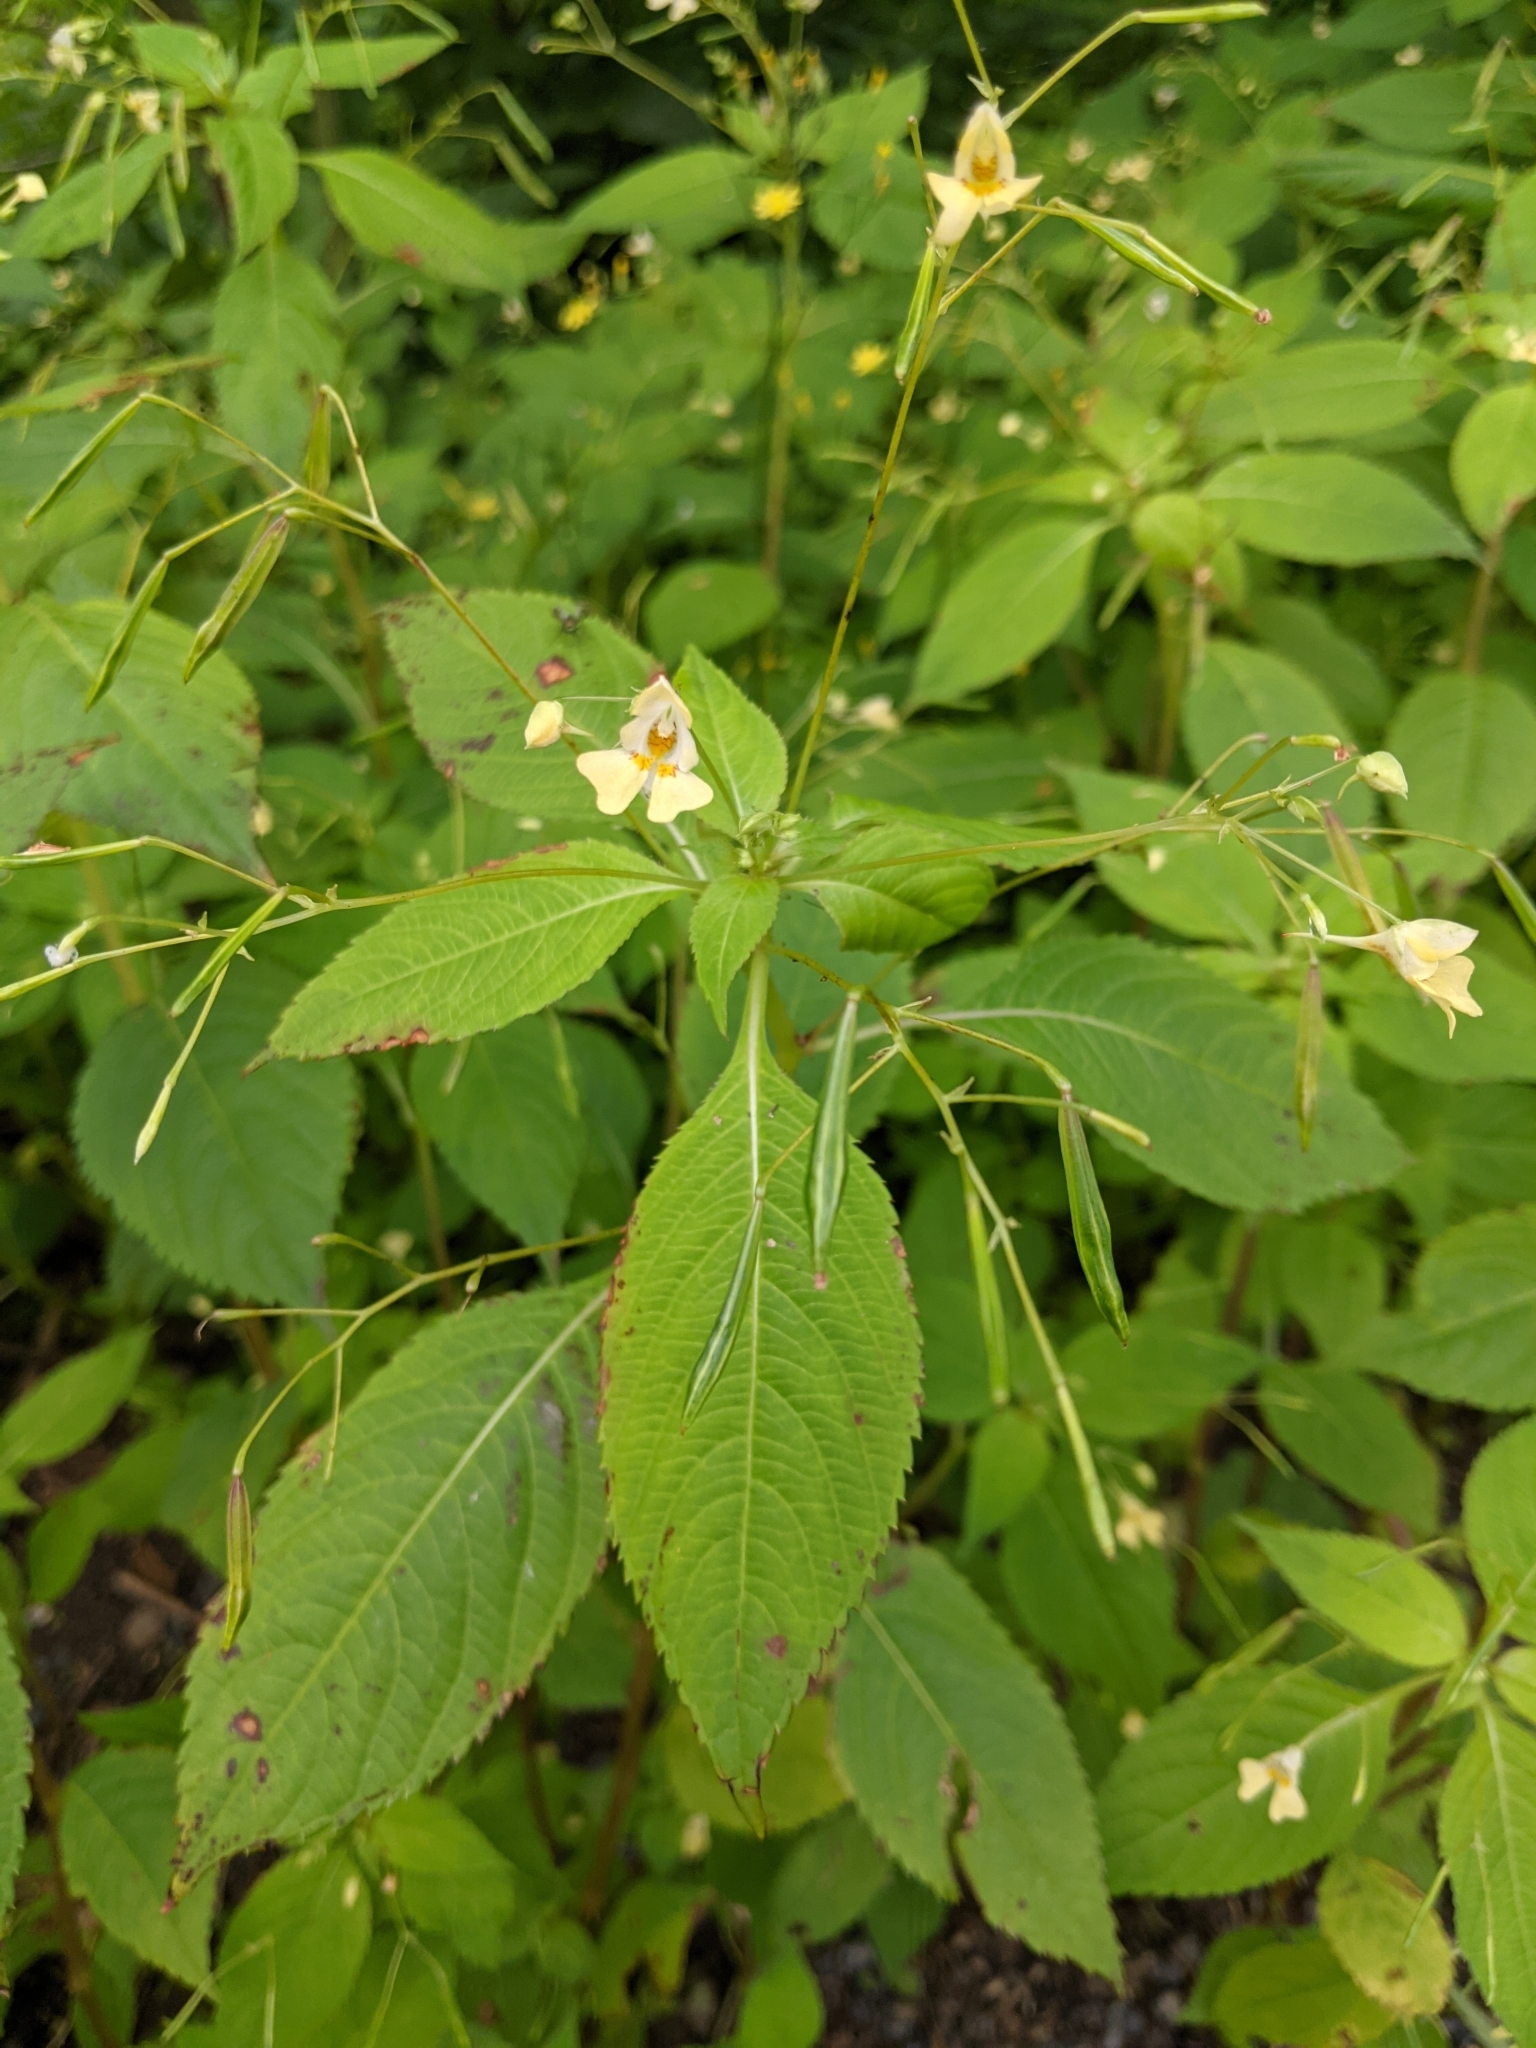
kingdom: Plantae
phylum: Tracheophyta
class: Magnoliopsida
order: Ericales
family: Balsaminaceae
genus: Impatiens
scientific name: Impatiens parviflora
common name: Small balsam
